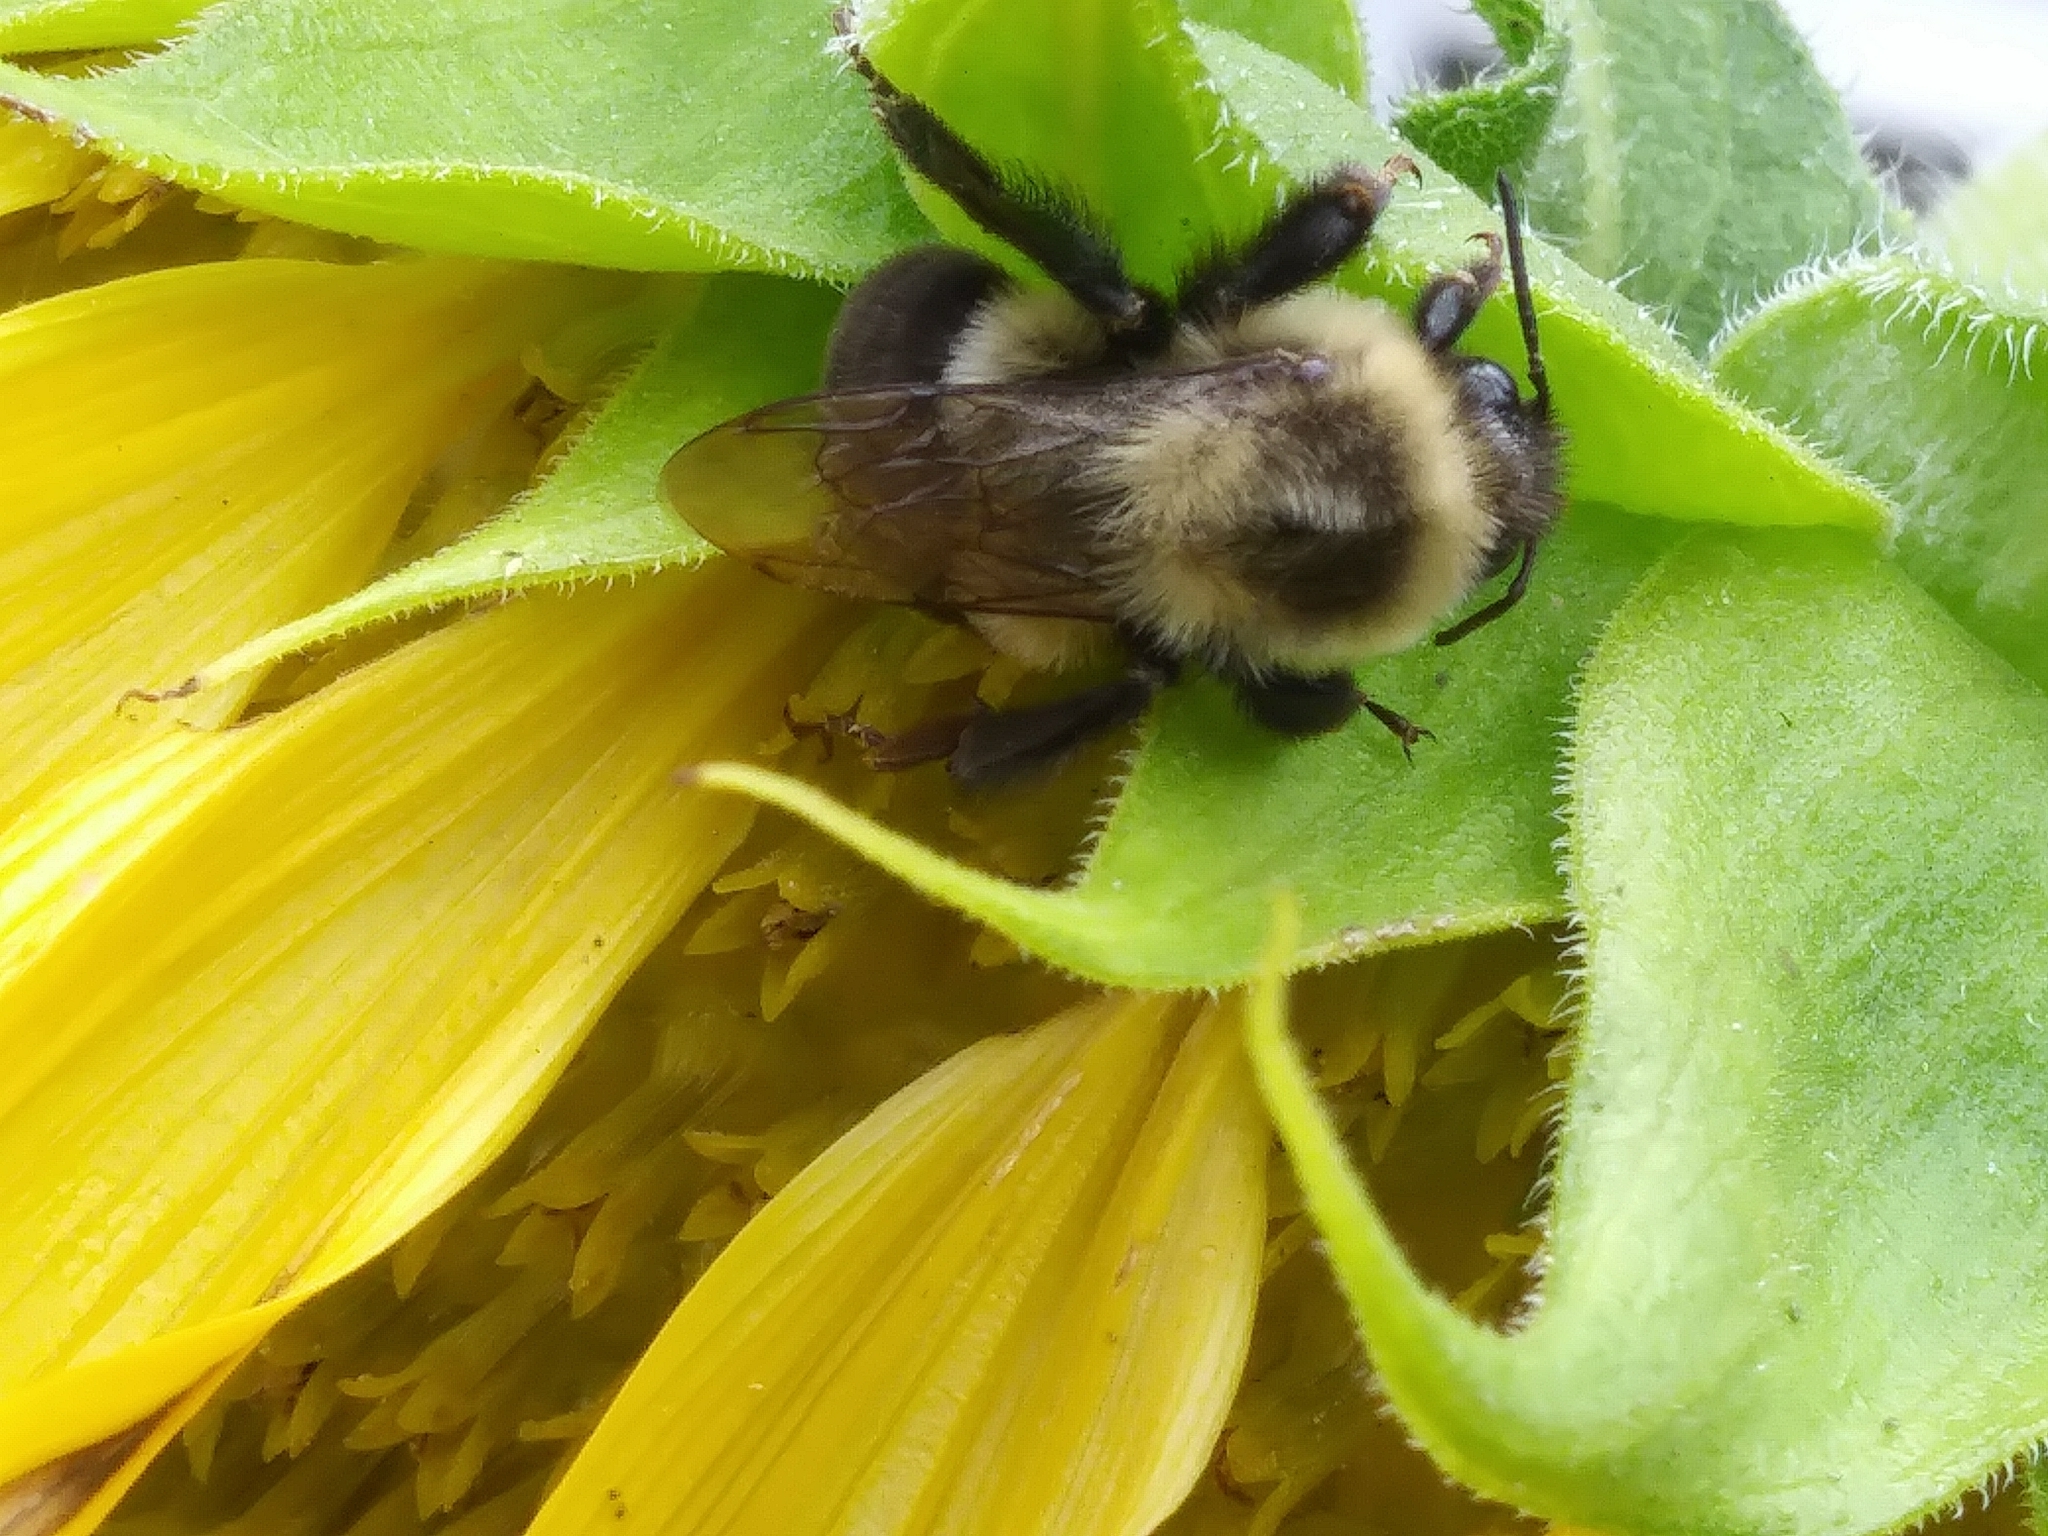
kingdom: Animalia
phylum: Arthropoda
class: Insecta
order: Hymenoptera
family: Apidae
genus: Bombus
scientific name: Bombus impatiens
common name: Common eastern bumble bee
